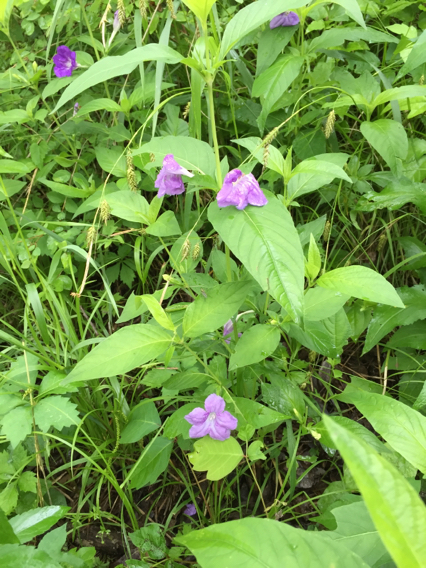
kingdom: Plantae
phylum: Tracheophyta
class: Magnoliopsida
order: Lamiales
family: Acanthaceae
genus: Ruellia
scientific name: Ruellia strepens
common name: Limestone wild petunia
